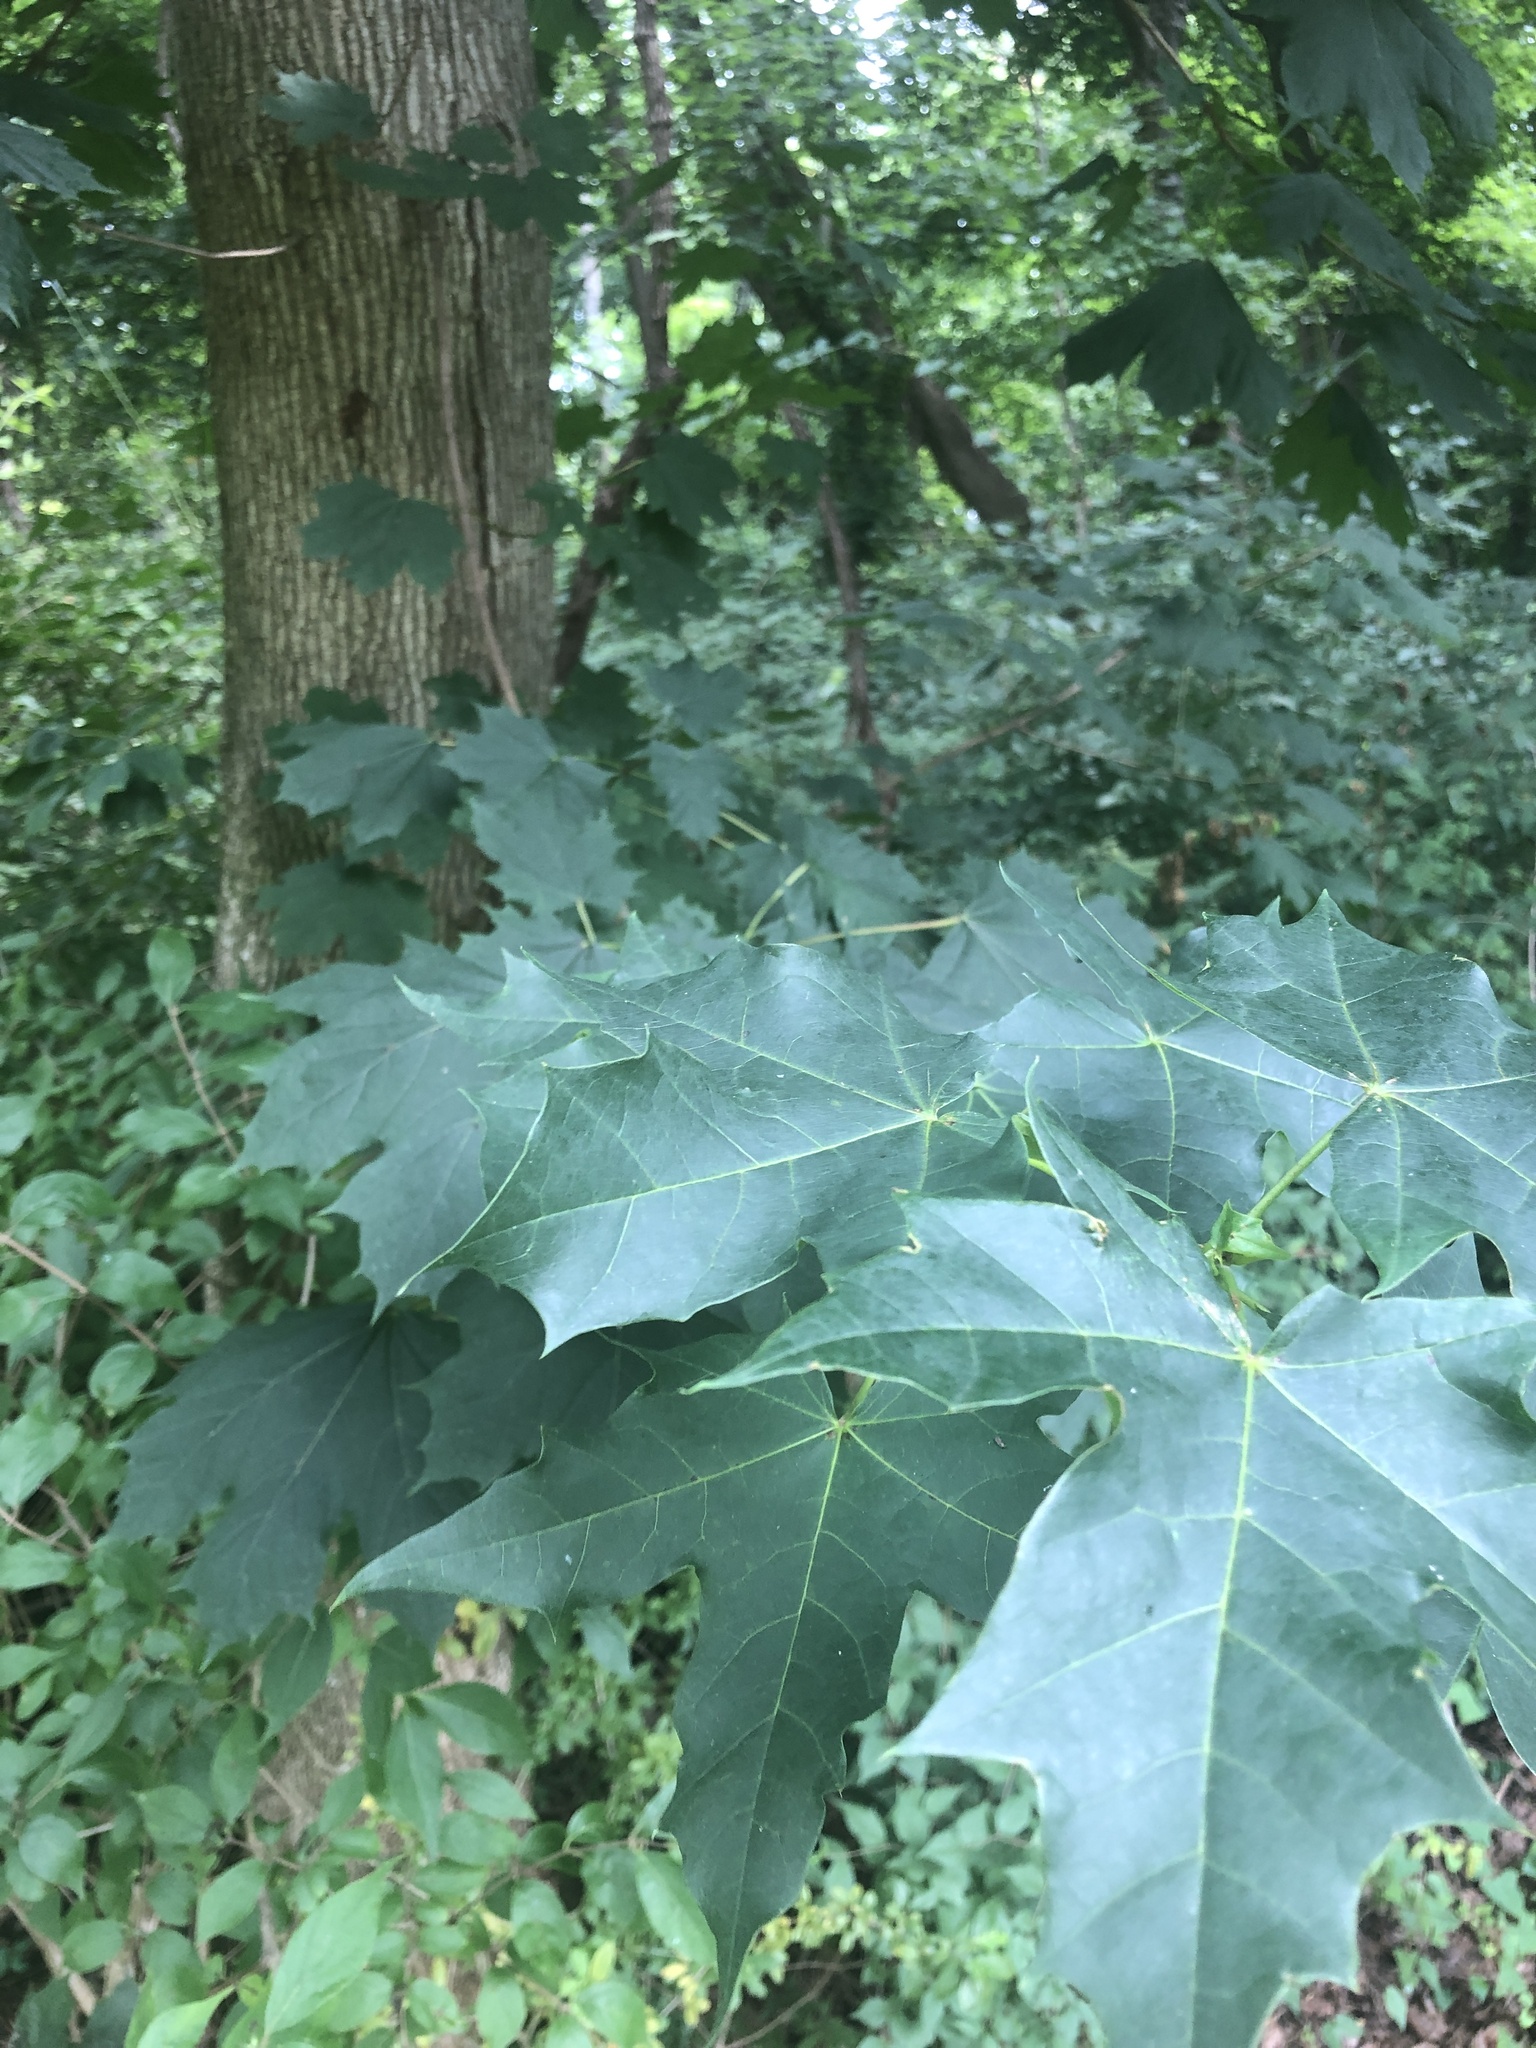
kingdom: Plantae
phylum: Tracheophyta
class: Magnoliopsida
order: Sapindales
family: Sapindaceae
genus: Acer
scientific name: Acer platanoides
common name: Norway maple
